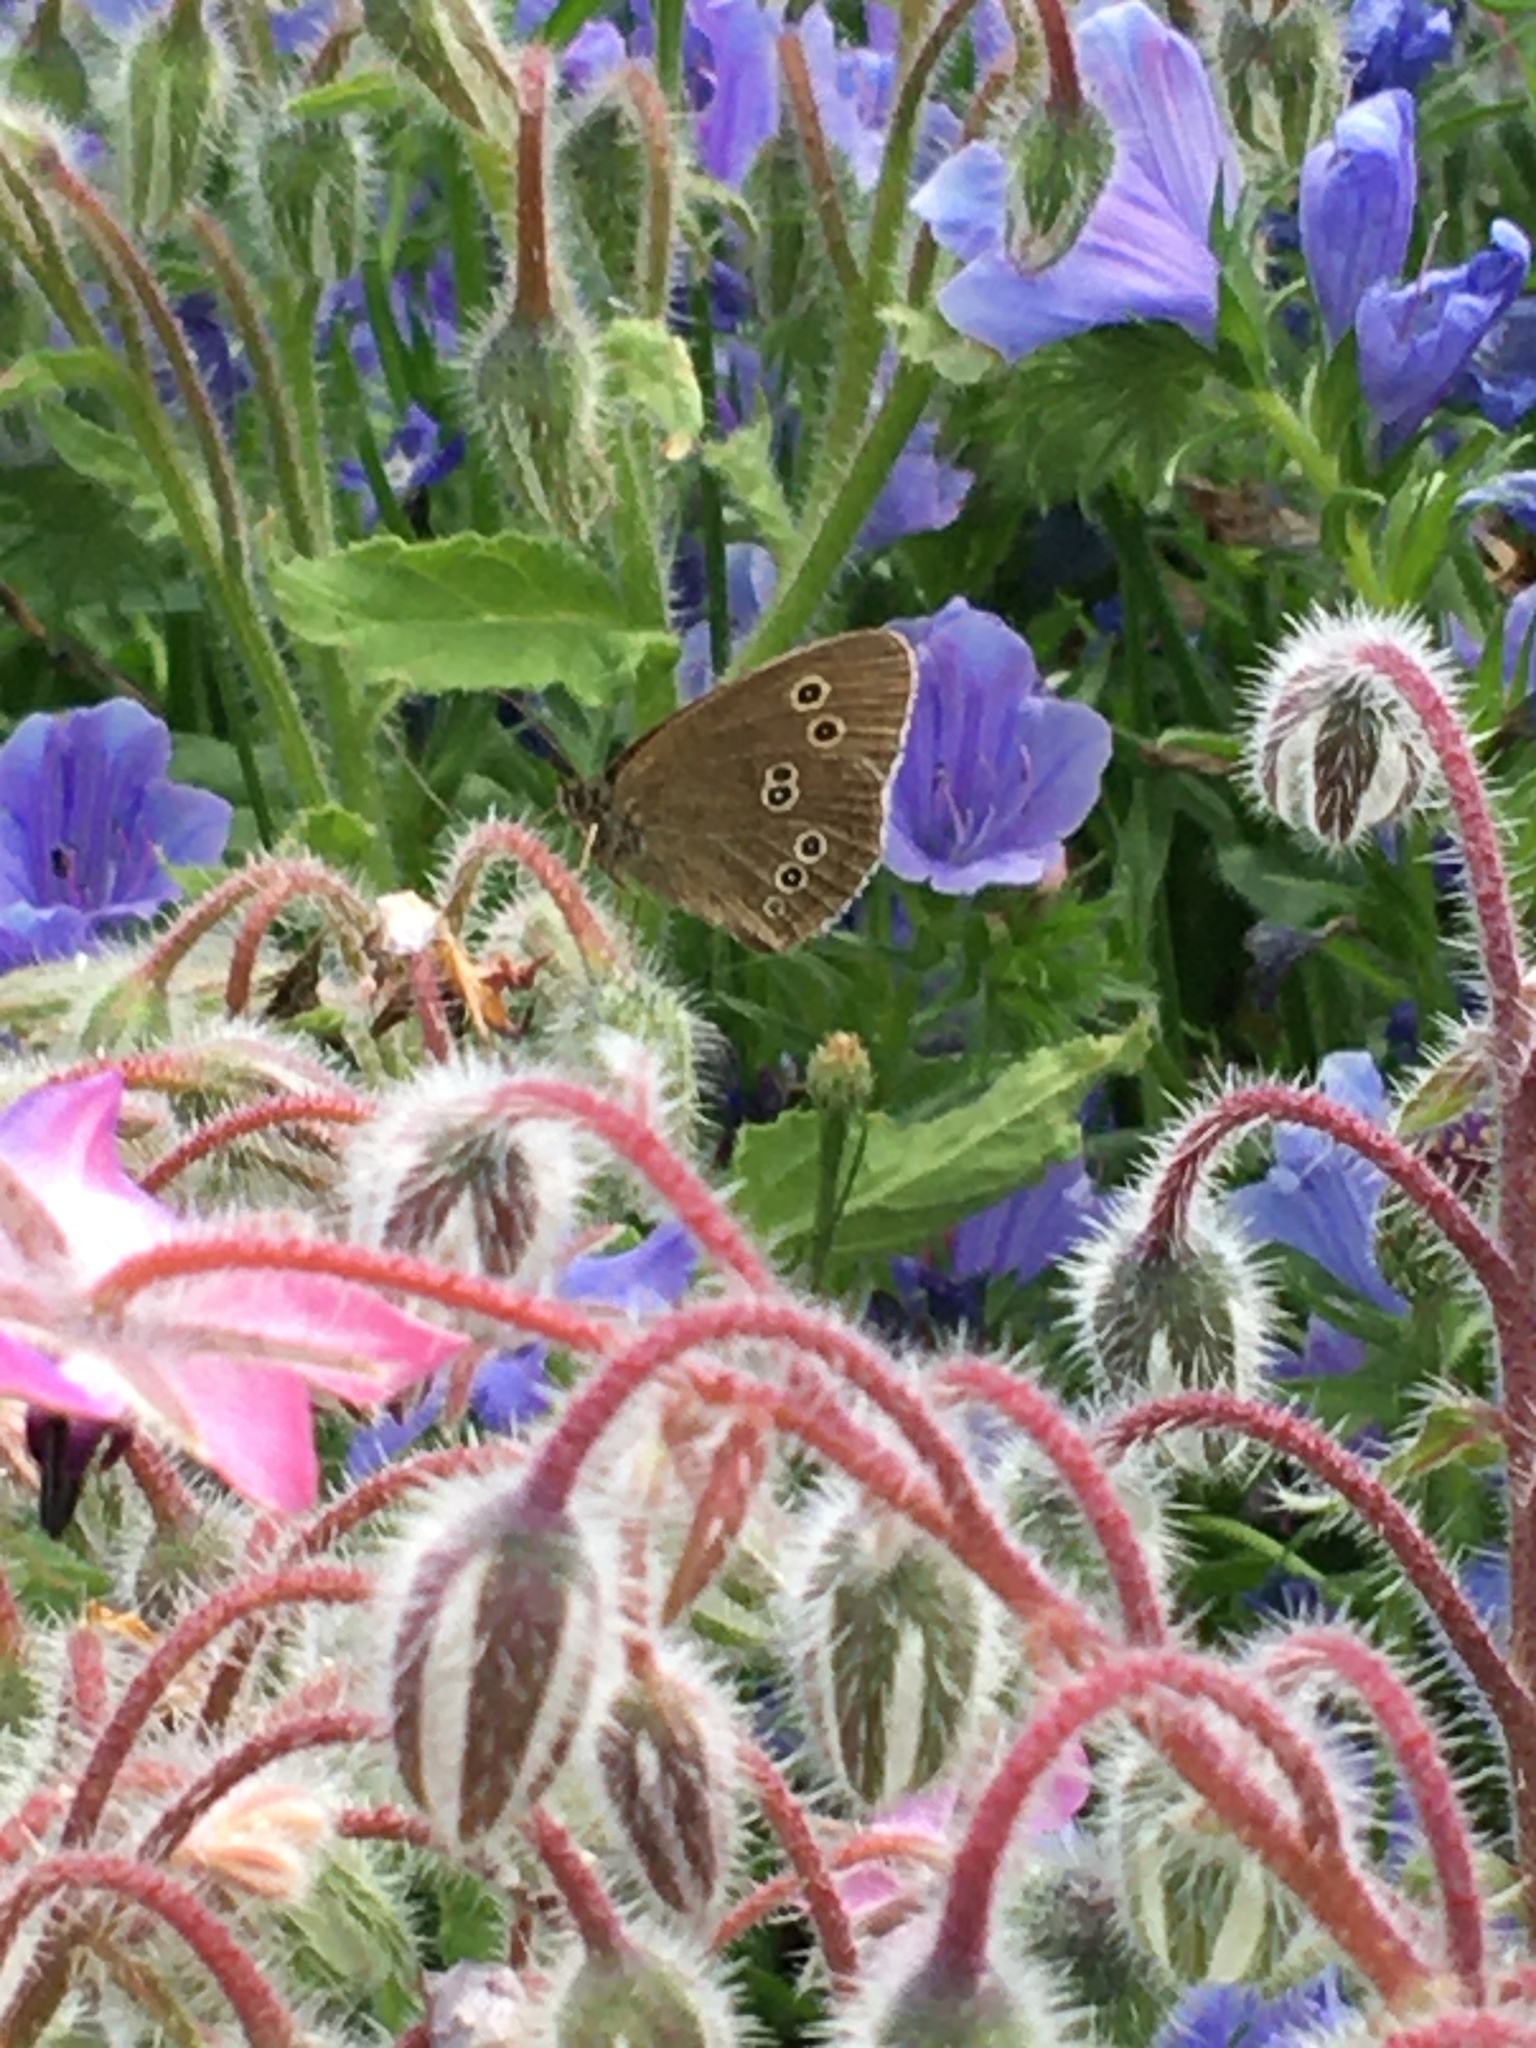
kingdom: Animalia
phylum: Arthropoda
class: Insecta
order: Lepidoptera
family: Nymphalidae
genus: Aphantopus
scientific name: Aphantopus hyperantus
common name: Ringlet
